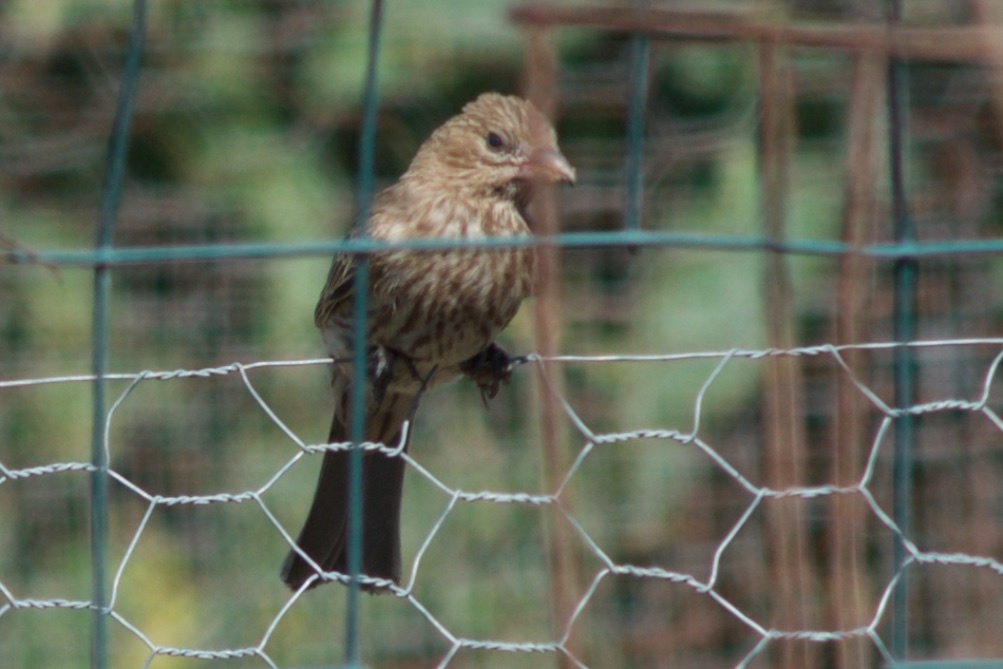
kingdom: Animalia
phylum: Chordata
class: Aves
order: Passeriformes
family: Fringillidae
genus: Haemorhous
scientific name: Haemorhous mexicanus
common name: House finch
